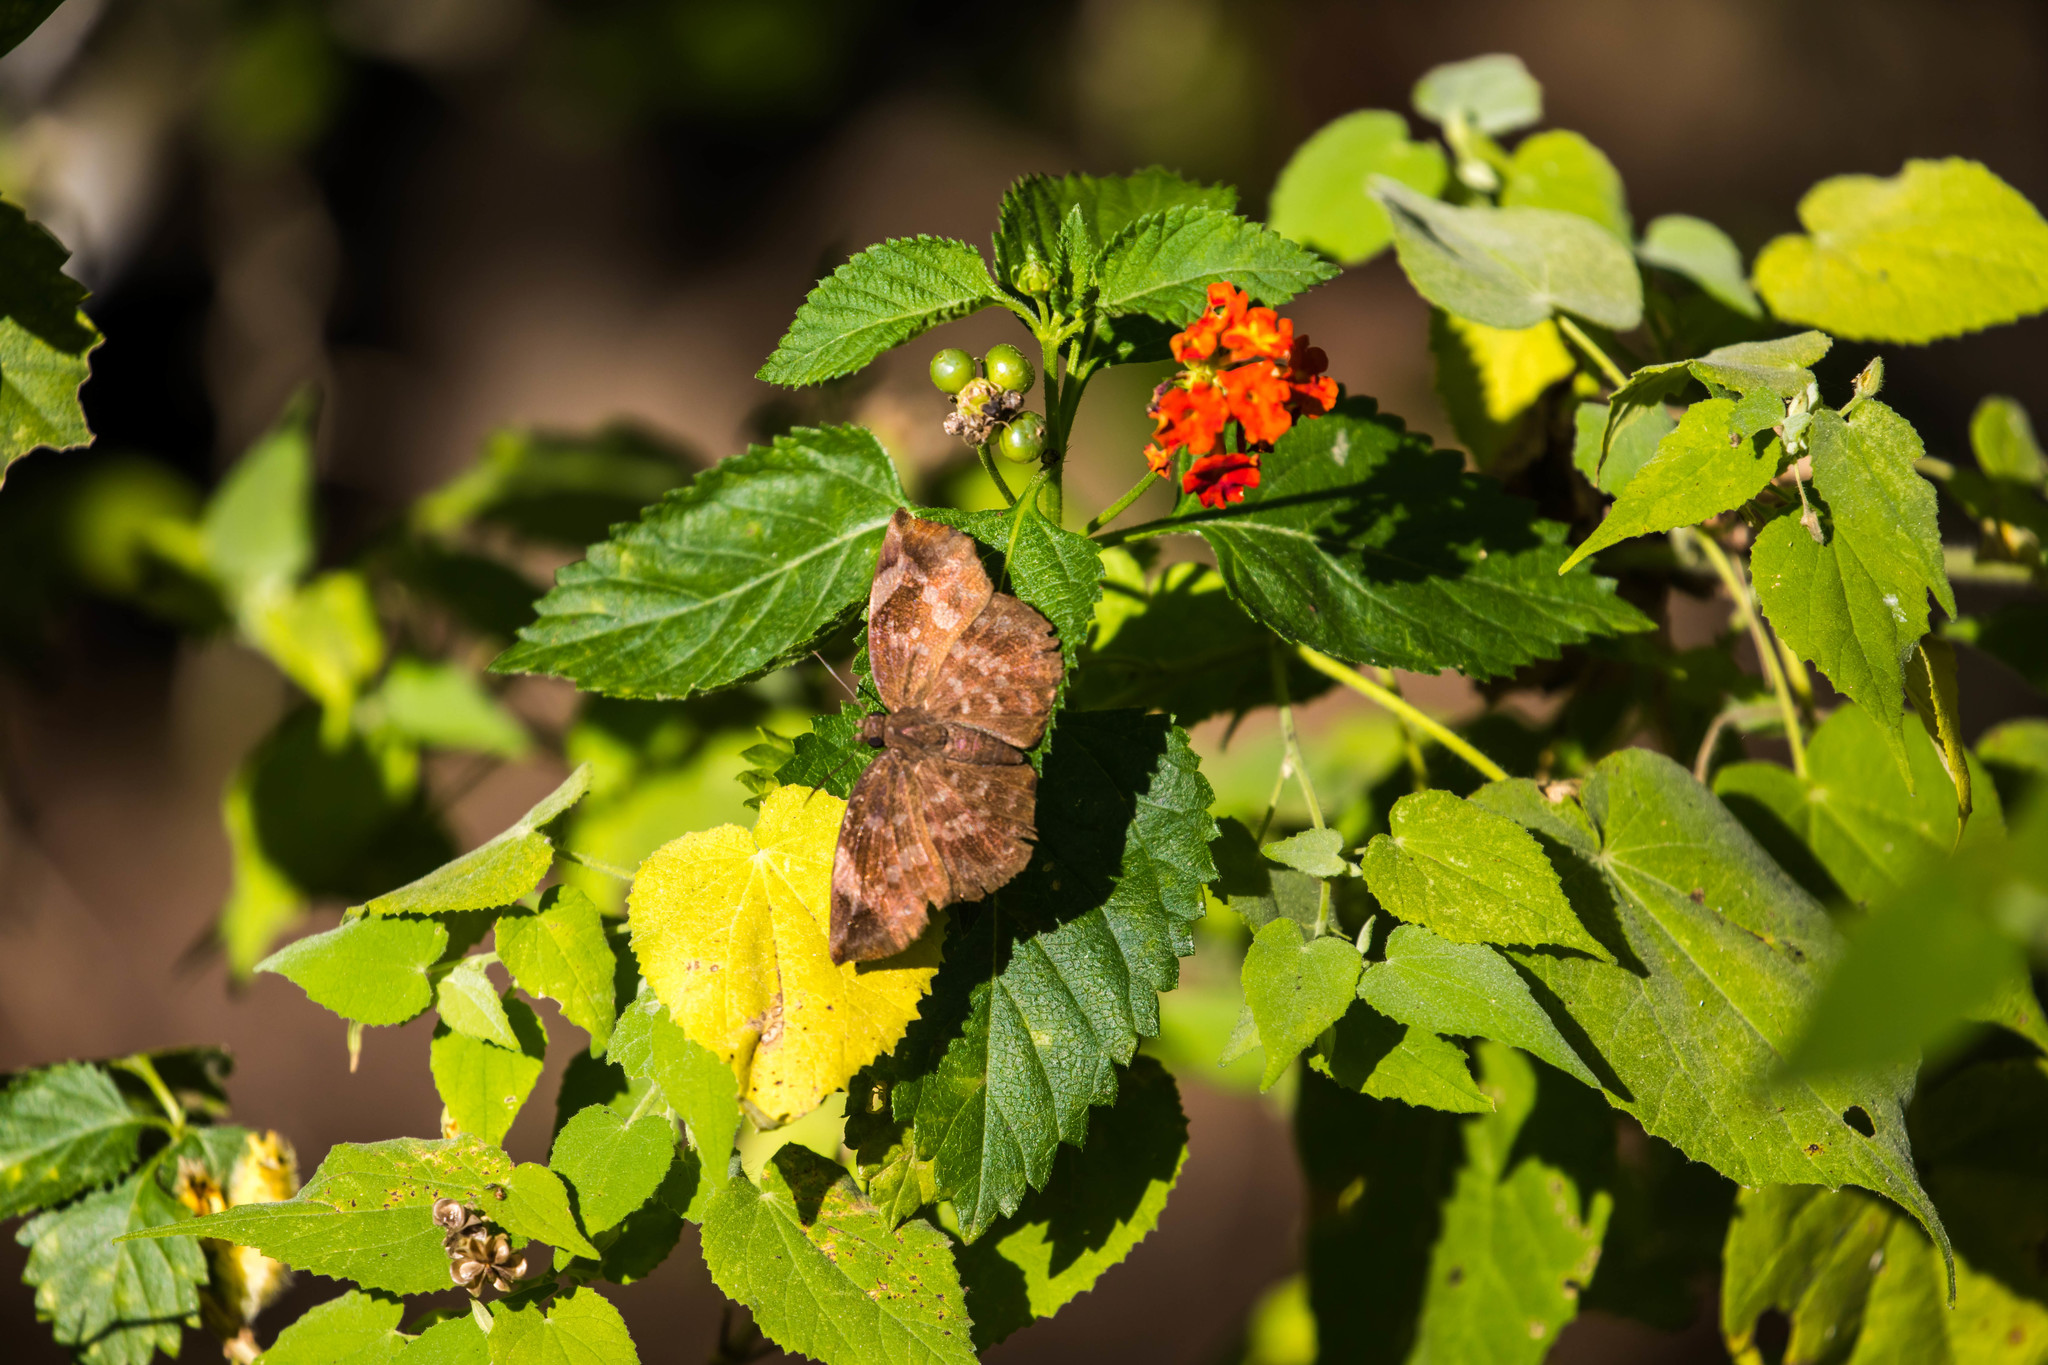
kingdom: Animalia
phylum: Arthropoda
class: Insecta
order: Lepidoptera
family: Hesperiidae
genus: Achlyodes
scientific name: Achlyodes thraso
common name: Sickle-winged skipper
